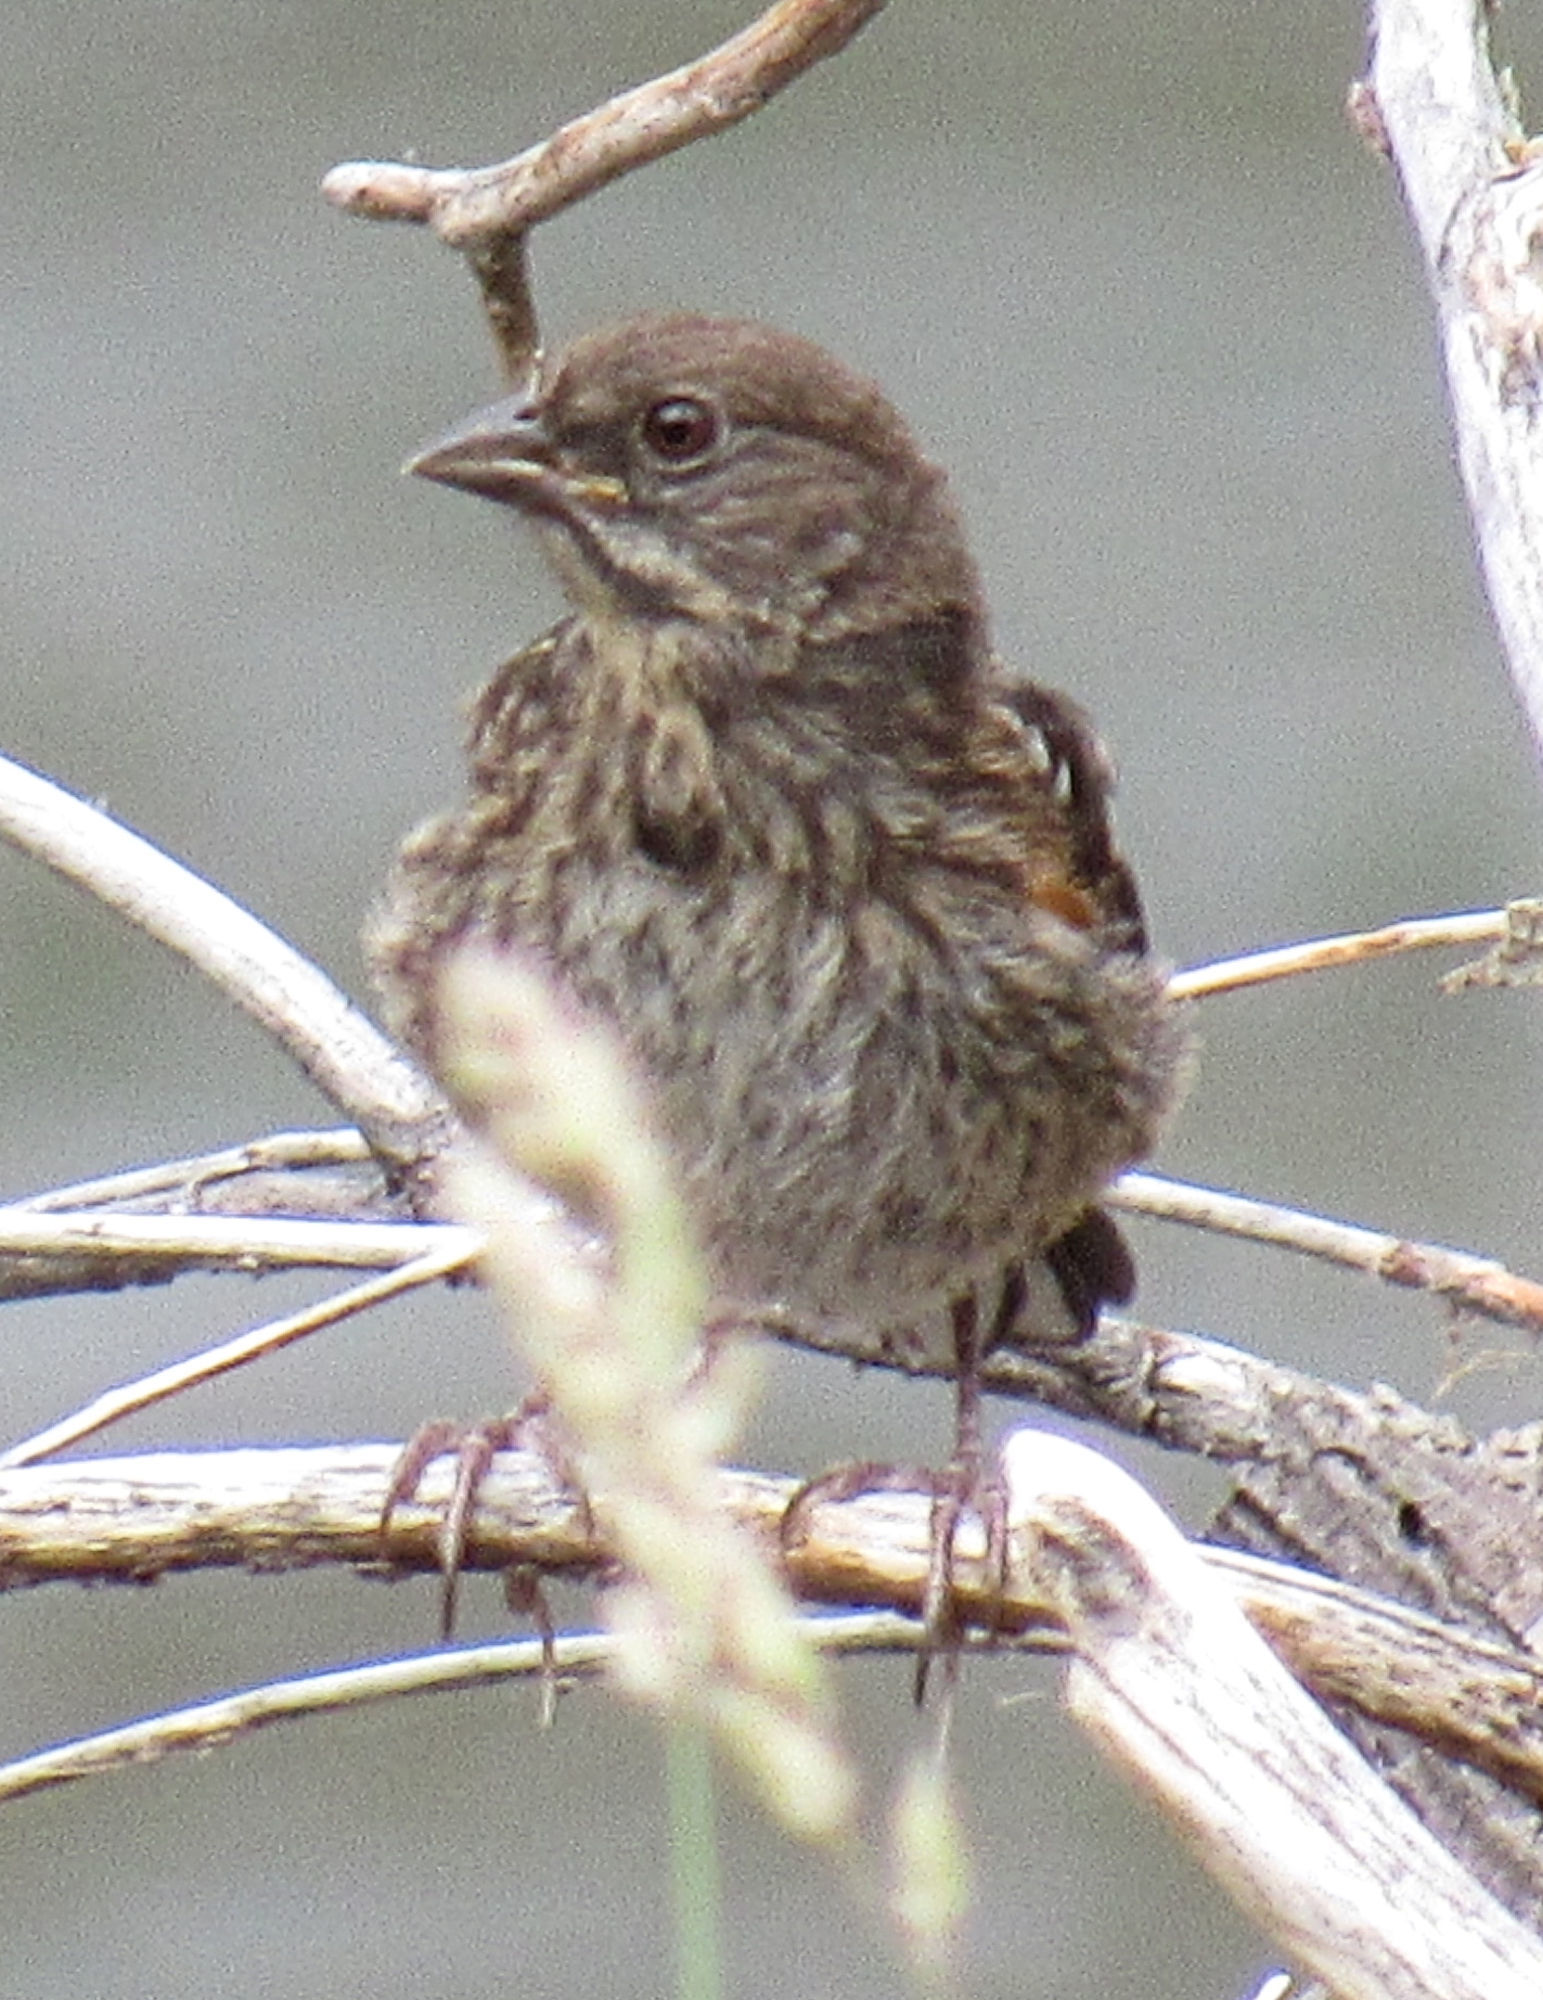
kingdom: Animalia
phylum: Chordata
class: Aves
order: Passeriformes
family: Passerellidae
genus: Pipilo
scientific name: Pipilo maculatus
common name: Spotted towhee
